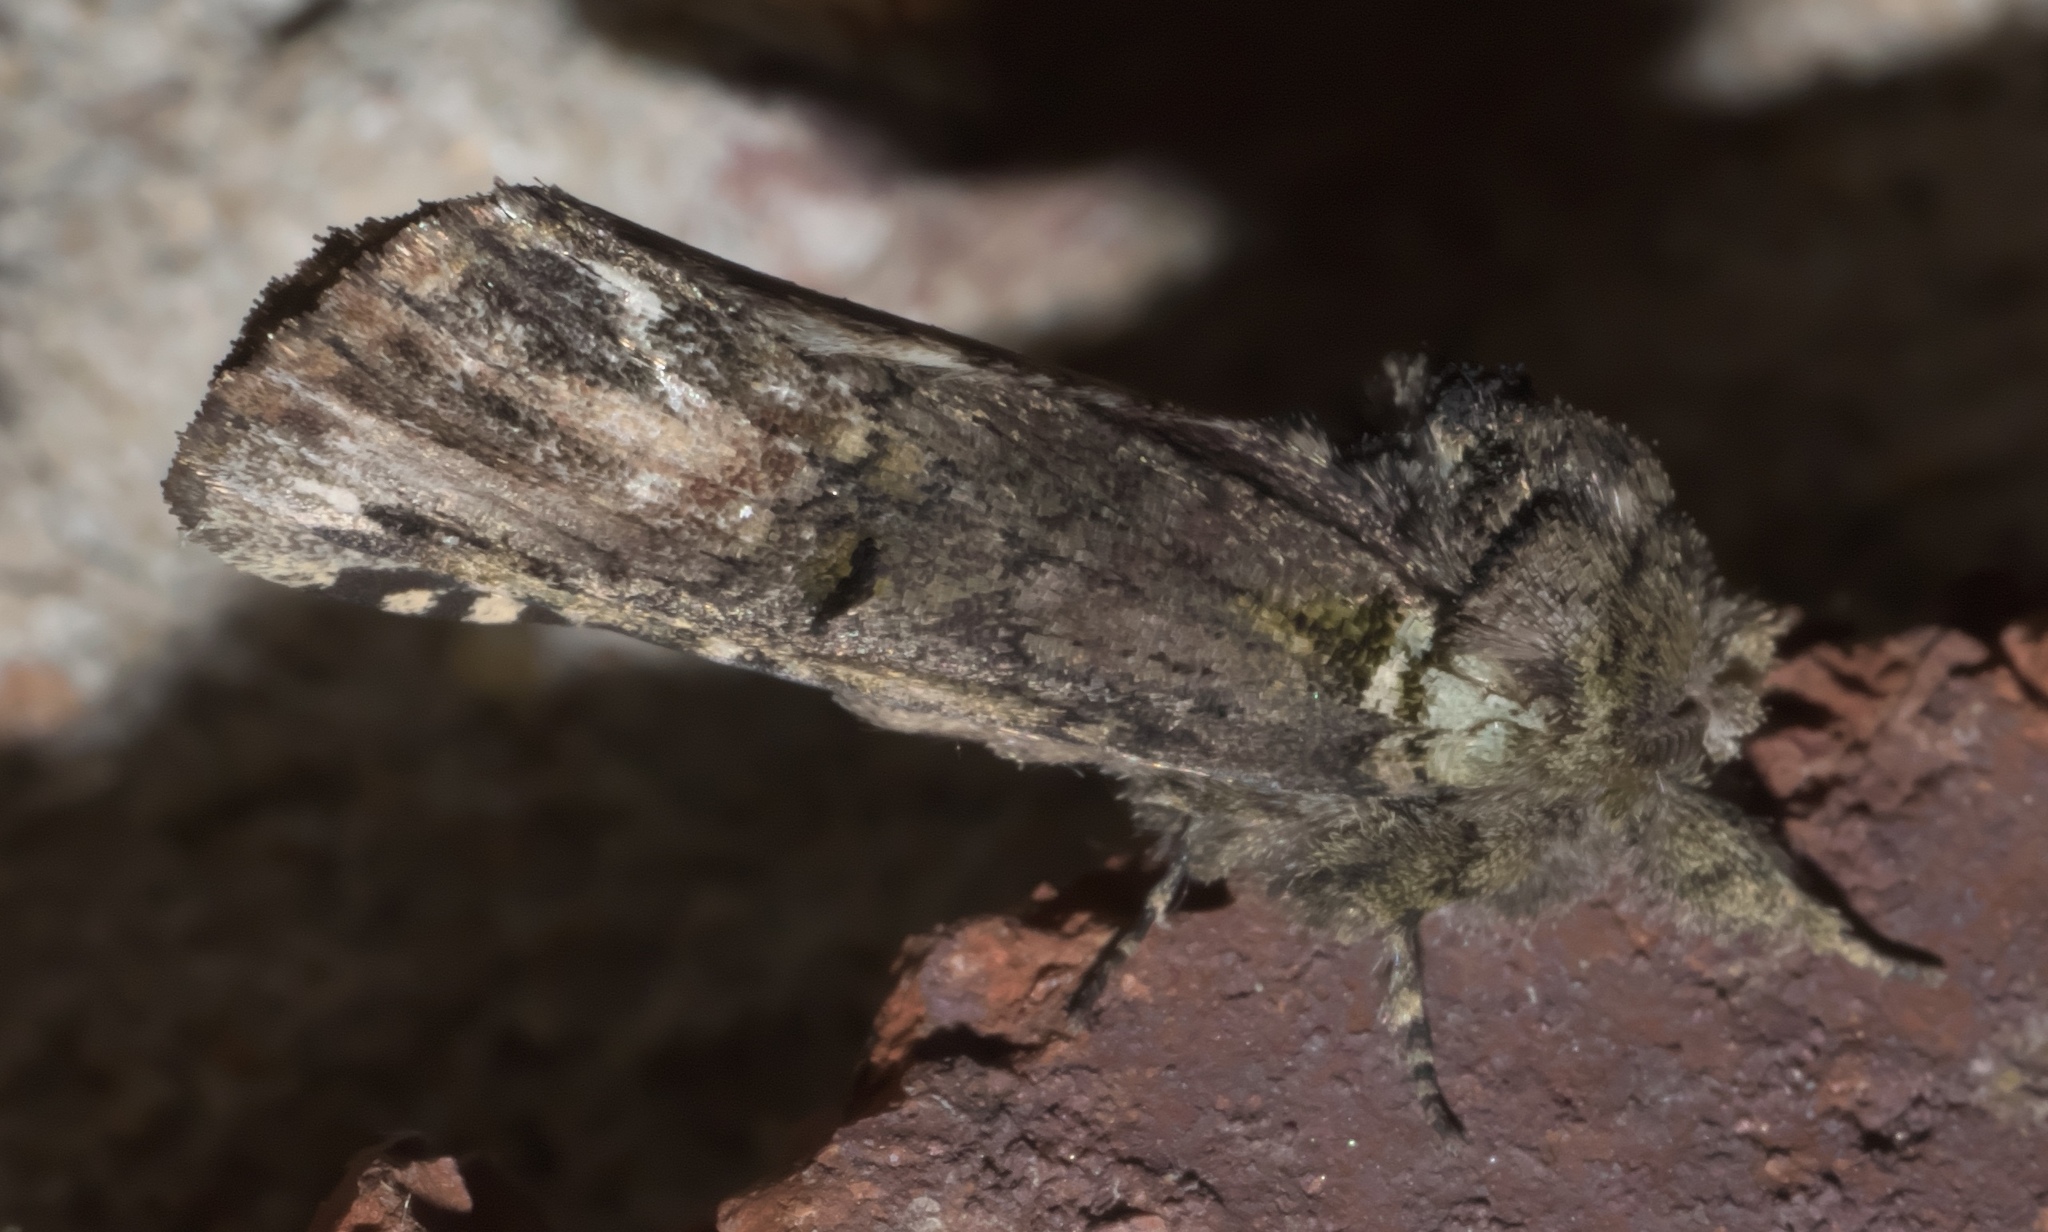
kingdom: Animalia
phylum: Arthropoda
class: Insecta
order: Lepidoptera
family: Notodontidae
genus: Schizura
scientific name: Schizura
